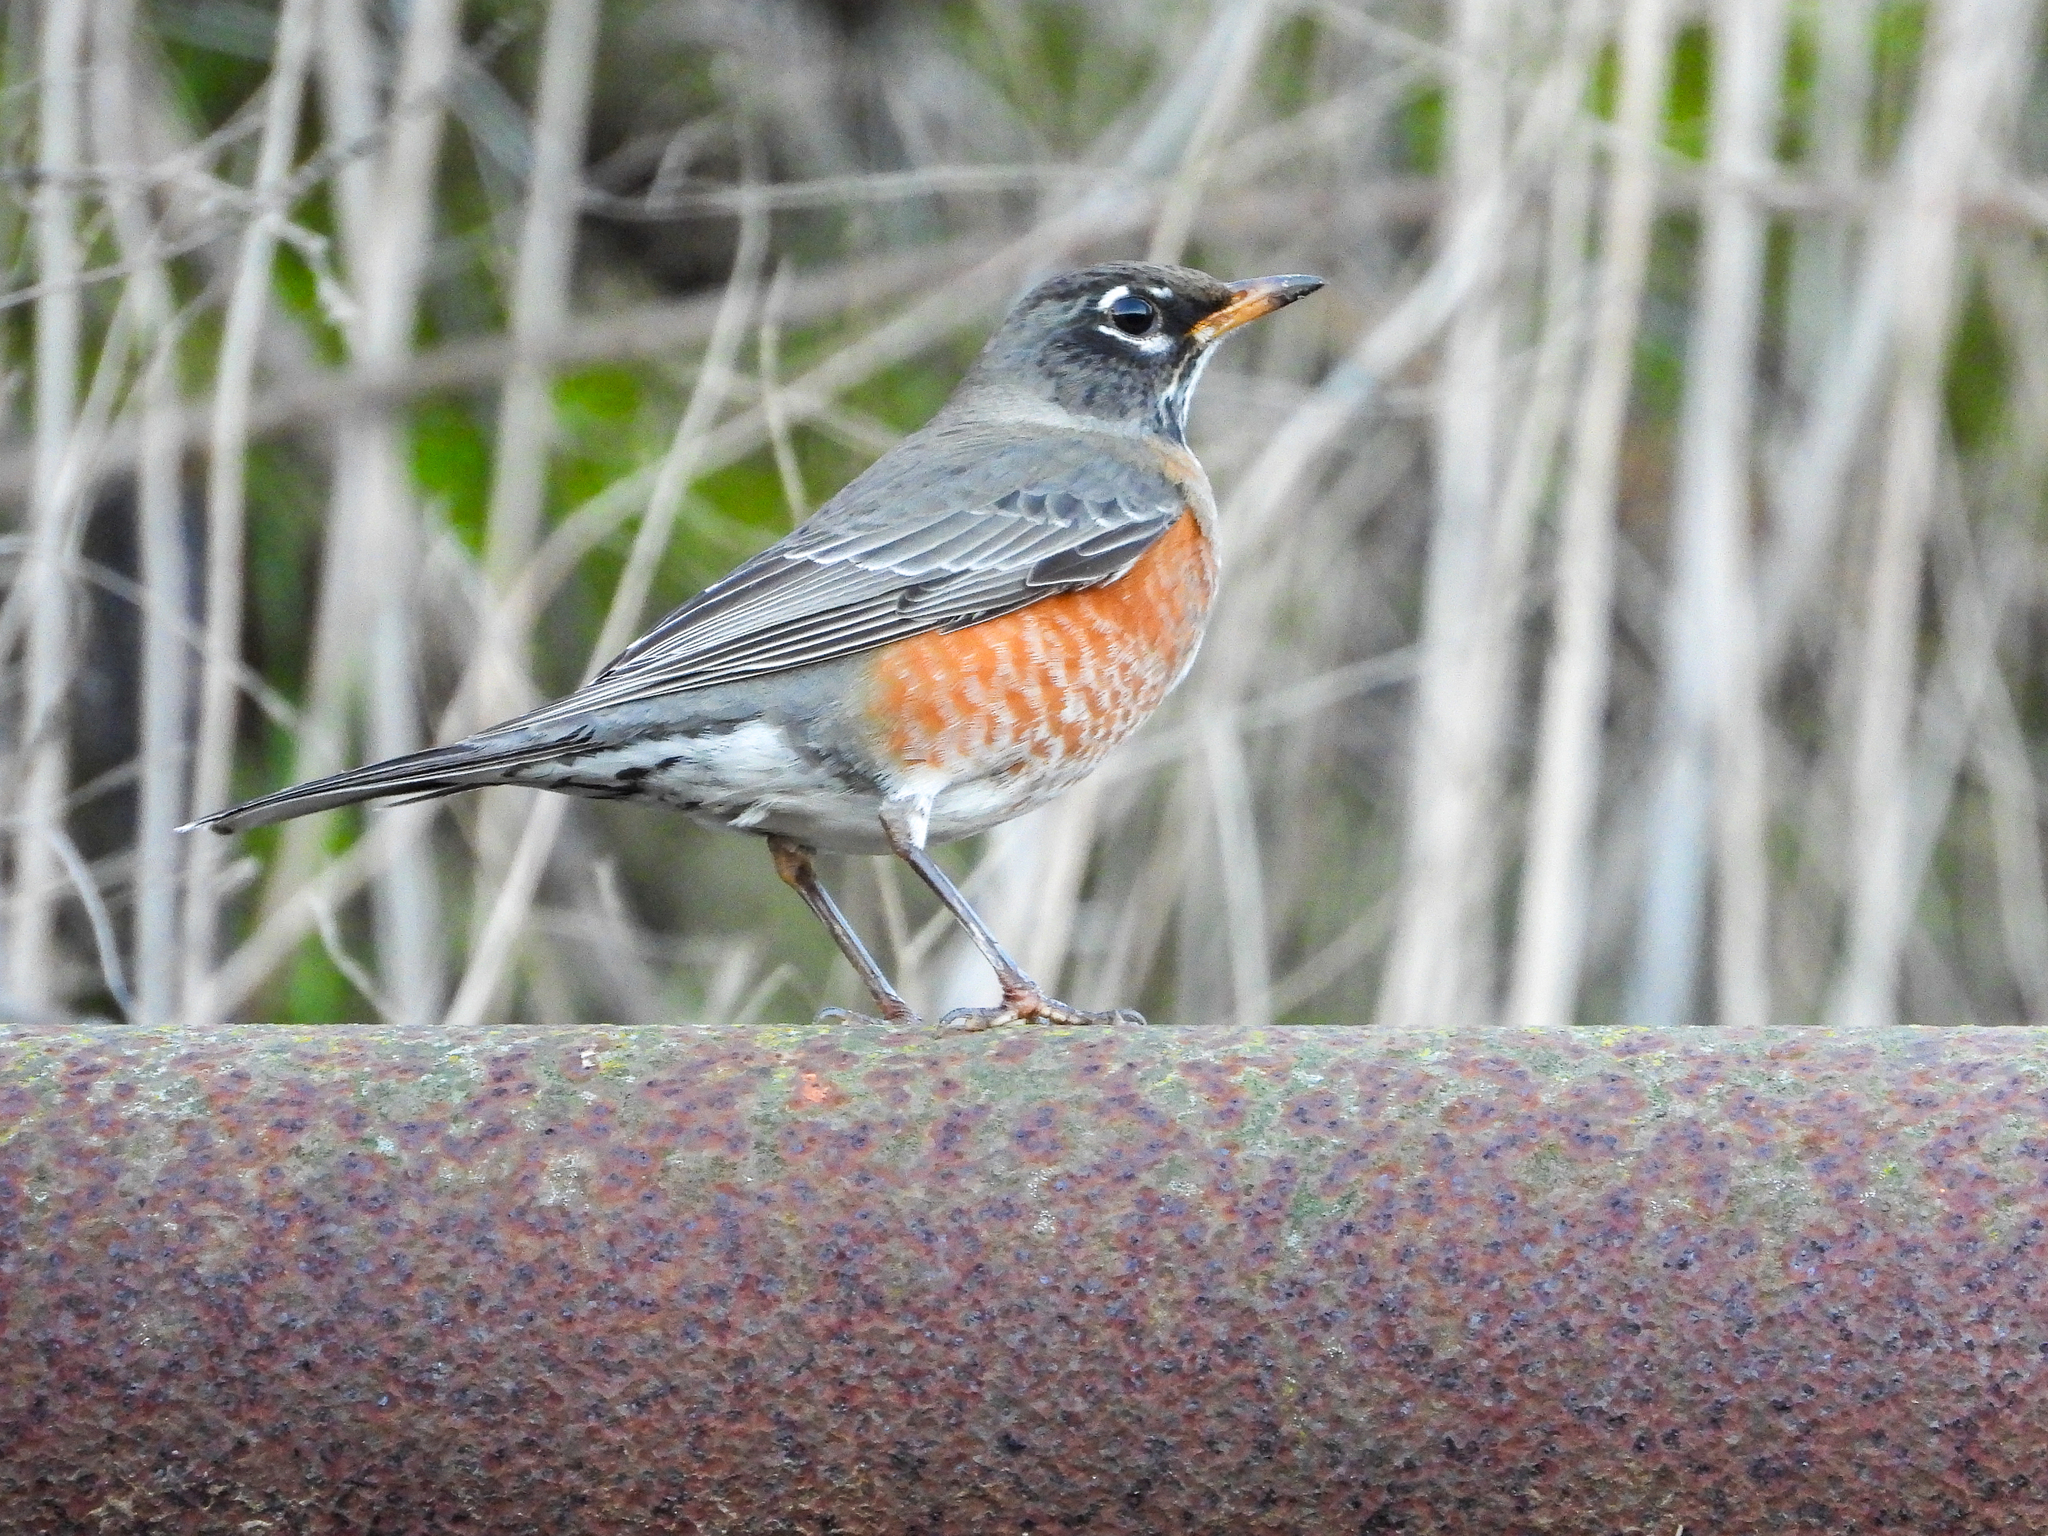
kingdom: Animalia
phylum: Chordata
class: Aves
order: Passeriformes
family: Turdidae
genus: Turdus
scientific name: Turdus migratorius
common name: American robin
